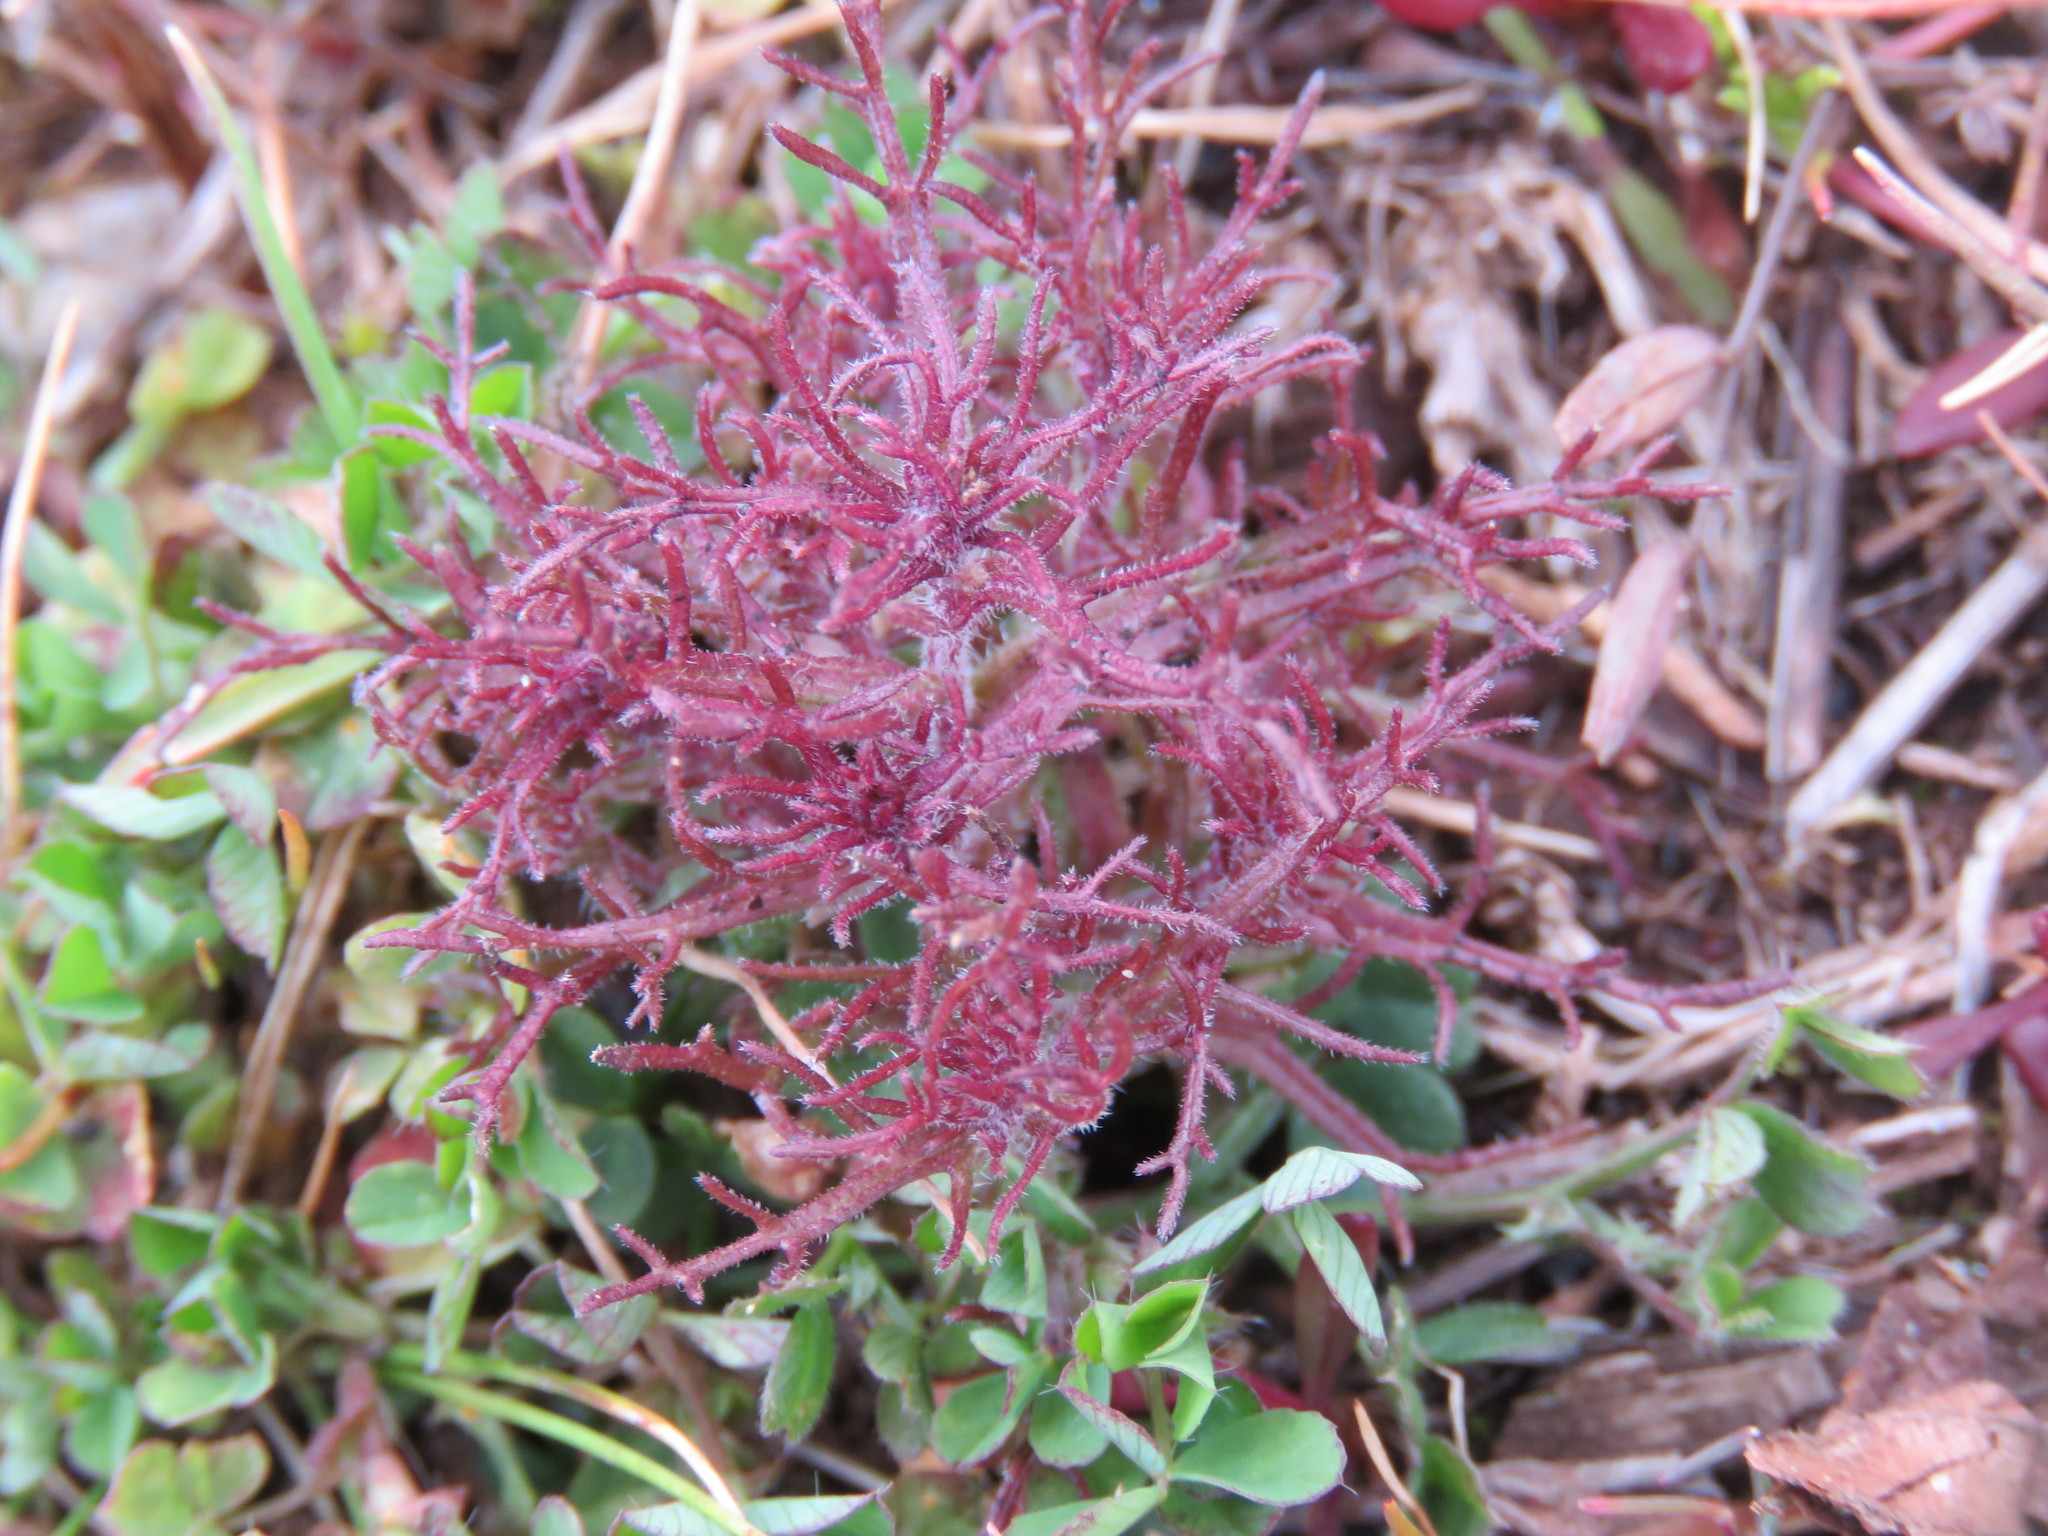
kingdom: Plantae
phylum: Tracheophyta
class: Magnoliopsida
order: Lamiales
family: Orobanchaceae
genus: Triphysaria
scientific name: Triphysaria pusilla
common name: Dwarf false owl-clover
